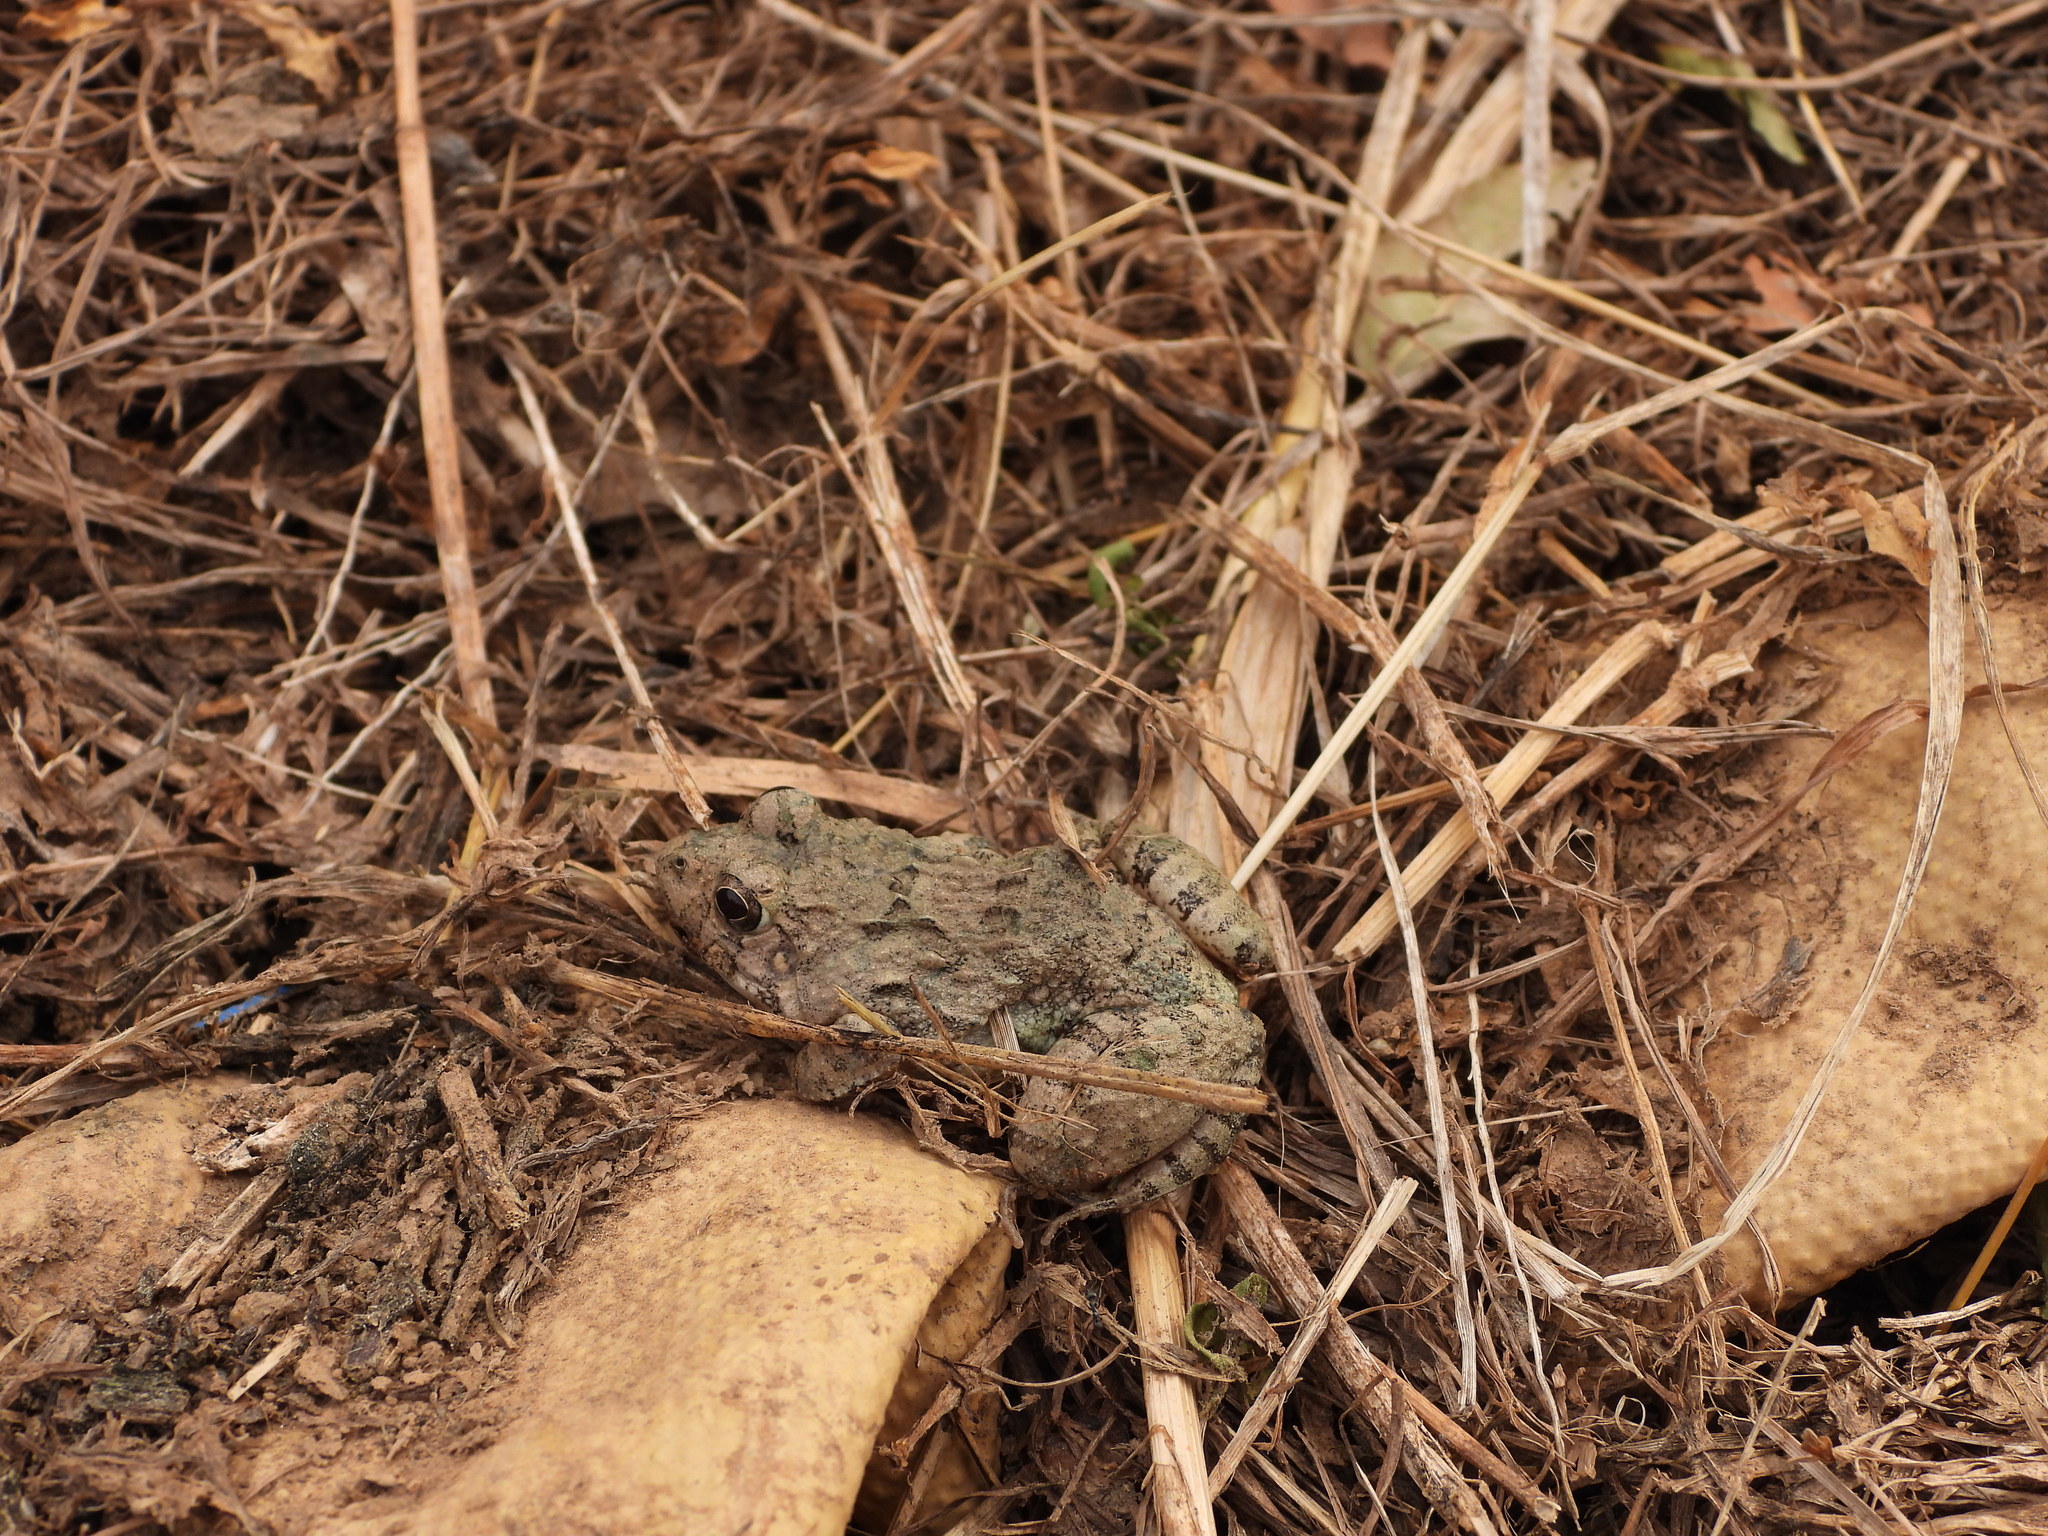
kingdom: Animalia
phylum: Chordata
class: Amphibia
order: Anura
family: Dicroglossidae
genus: Fejervarya
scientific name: Fejervarya limnocharis
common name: Asian grass frog/common pond frog/field frog/grass frog/indian rice frog
